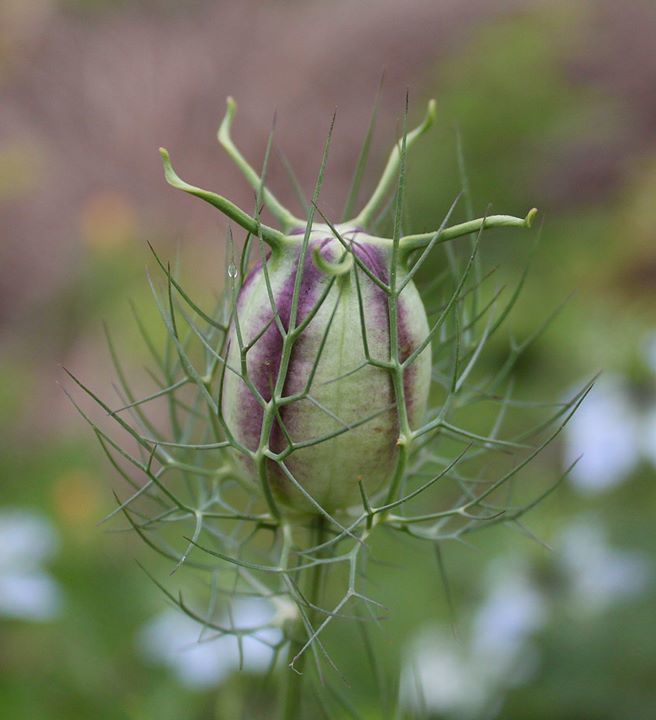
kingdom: Plantae
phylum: Tracheophyta
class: Magnoliopsida
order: Ranunculales
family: Ranunculaceae
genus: Nigella
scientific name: Nigella damascena
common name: Love-in-a-mist
